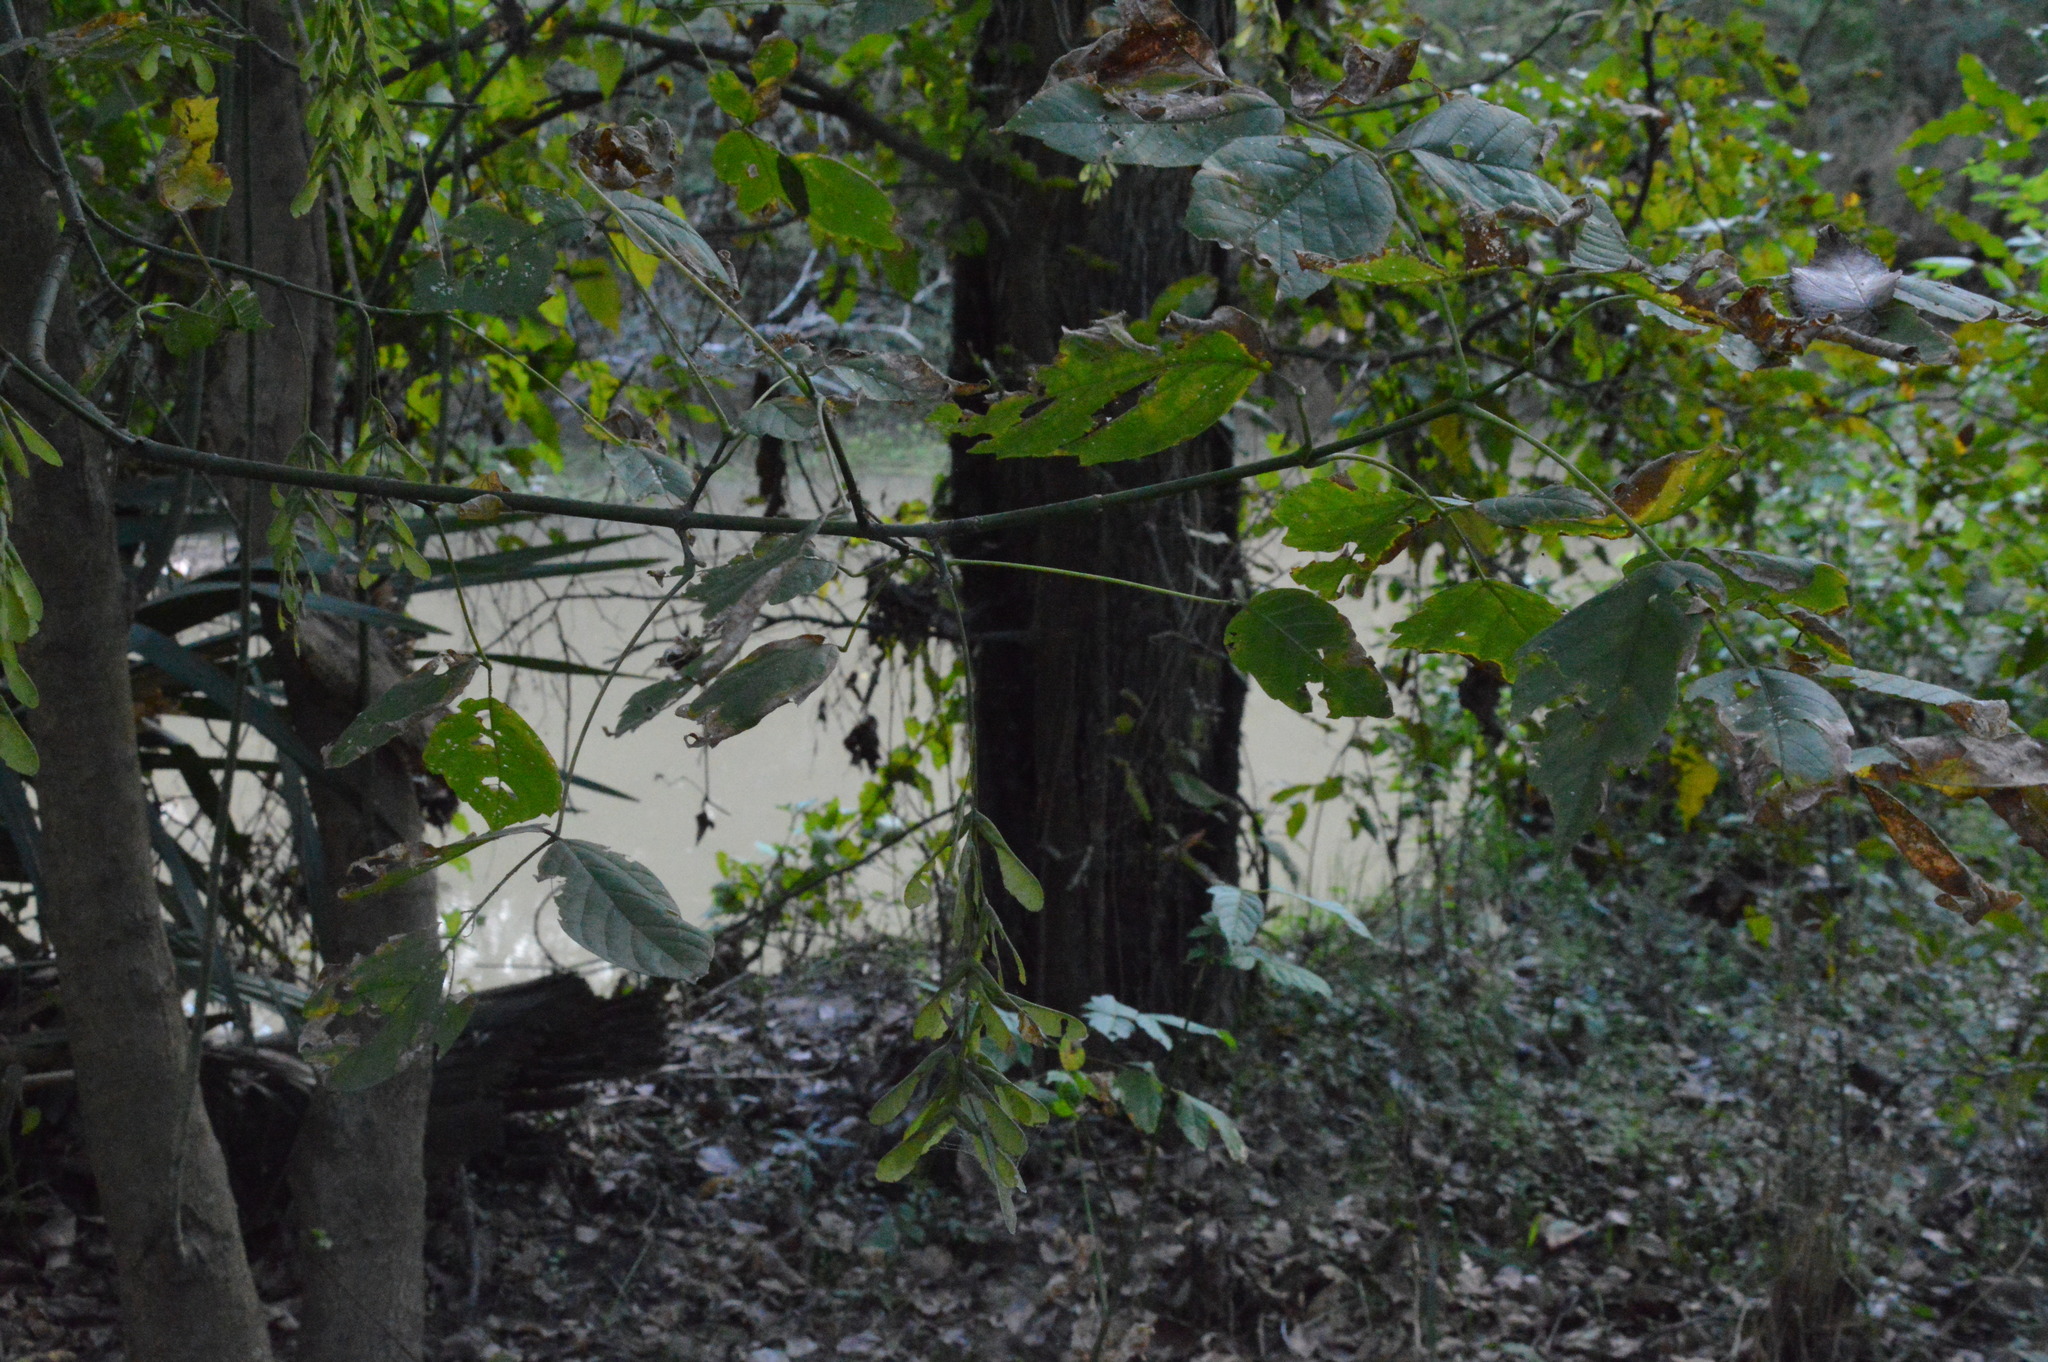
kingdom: Plantae
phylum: Tracheophyta
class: Magnoliopsida
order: Sapindales
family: Sapindaceae
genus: Acer
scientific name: Acer negundo
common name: Ashleaf maple
